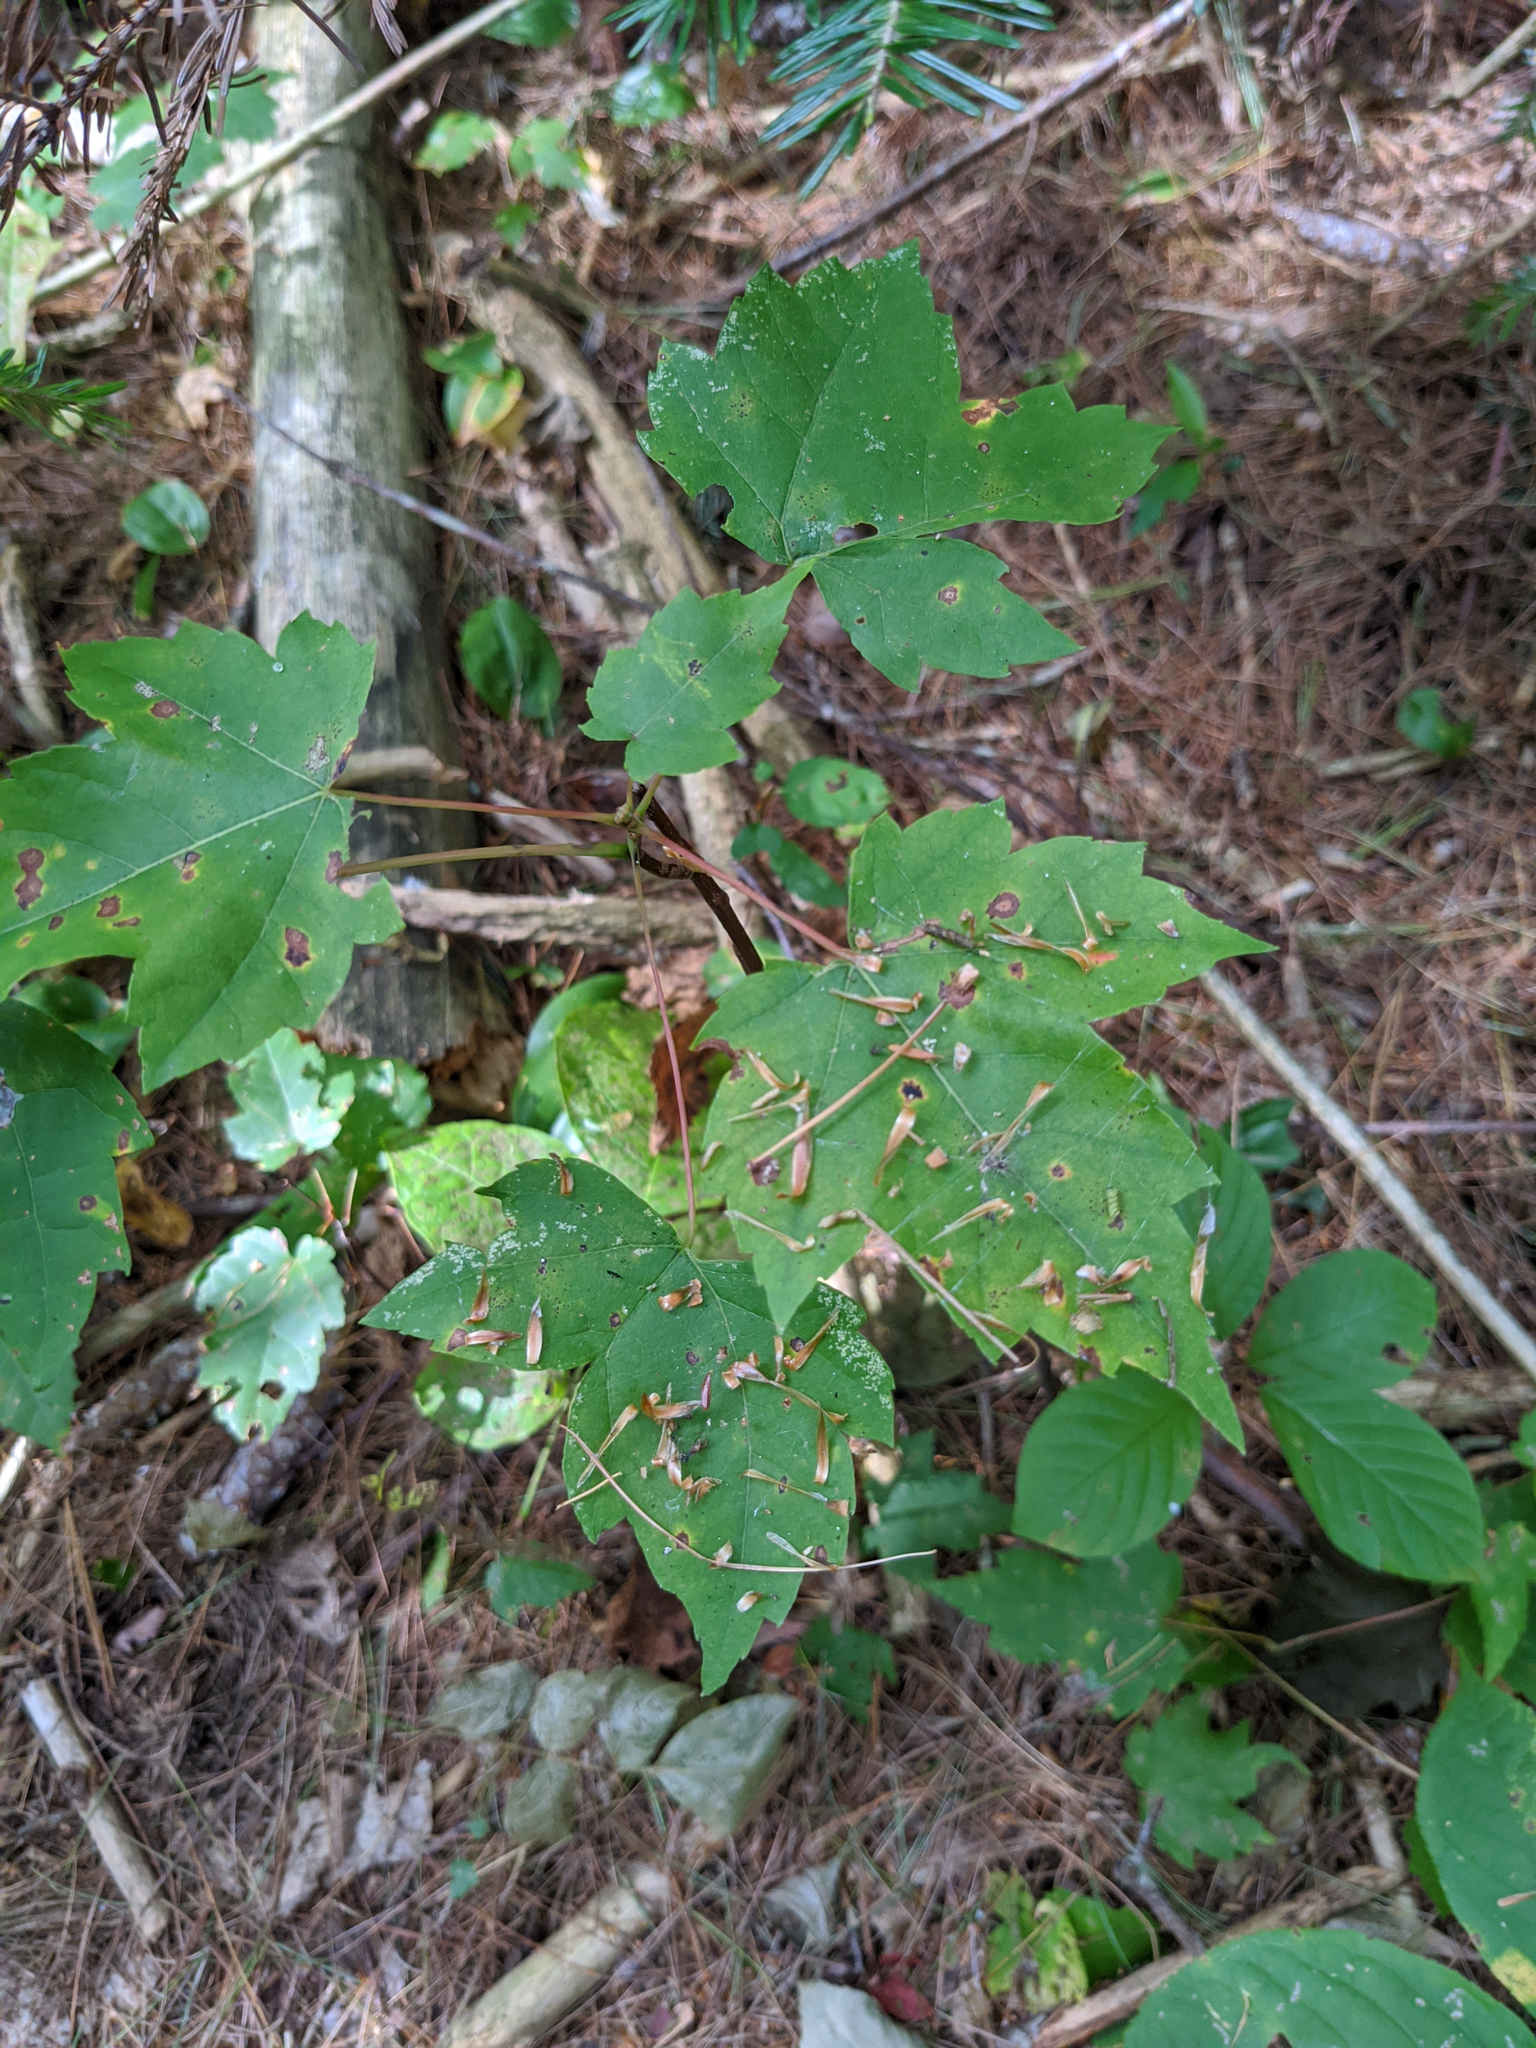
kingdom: Plantae
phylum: Tracheophyta
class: Magnoliopsida
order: Sapindales
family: Sapindaceae
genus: Acer
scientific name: Acer rubrum
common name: Red maple
